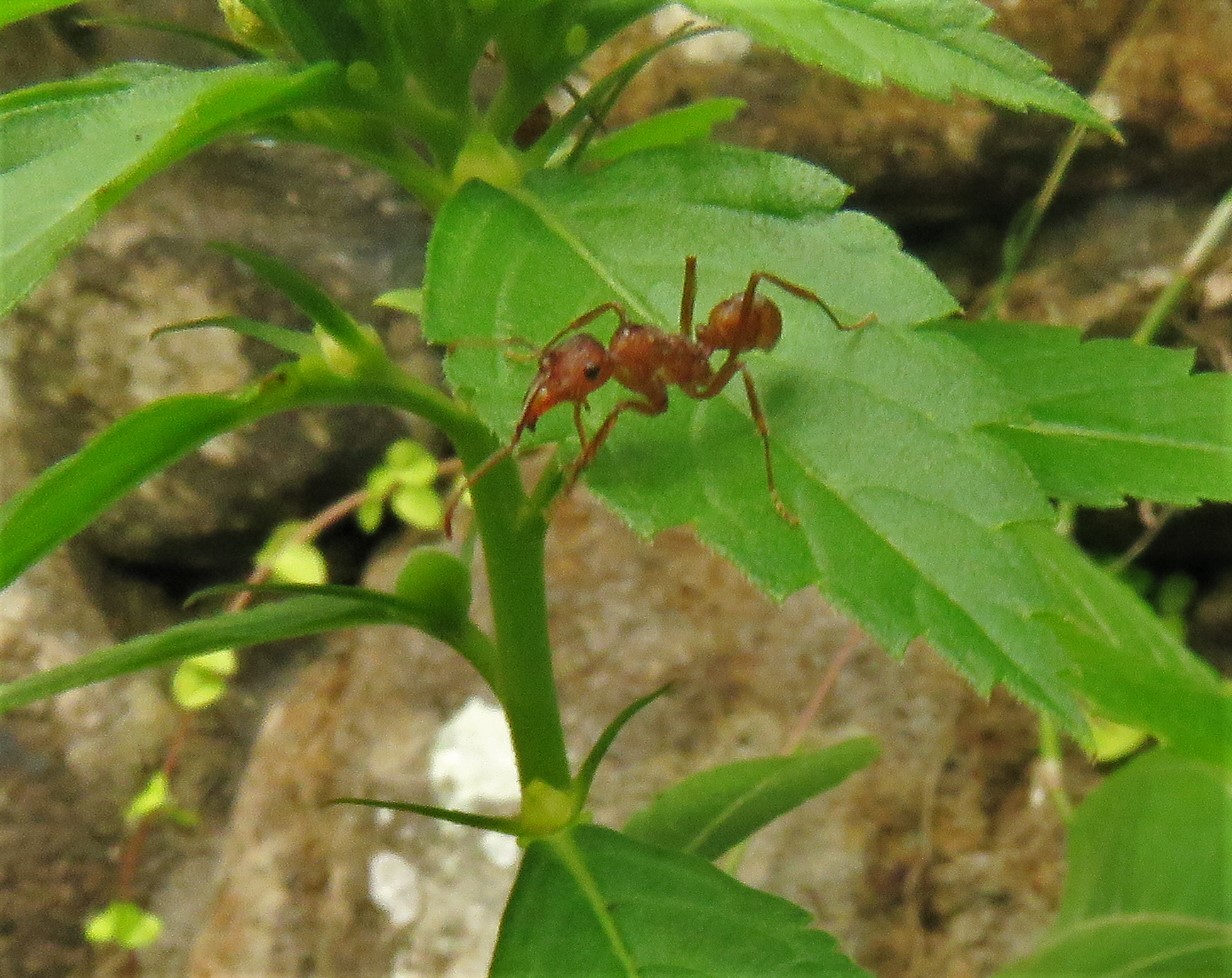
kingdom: Animalia
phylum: Arthropoda
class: Insecta
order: Hymenoptera
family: Formicidae
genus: Ectatomma
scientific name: Ectatomma tuberculatum
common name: Ant
